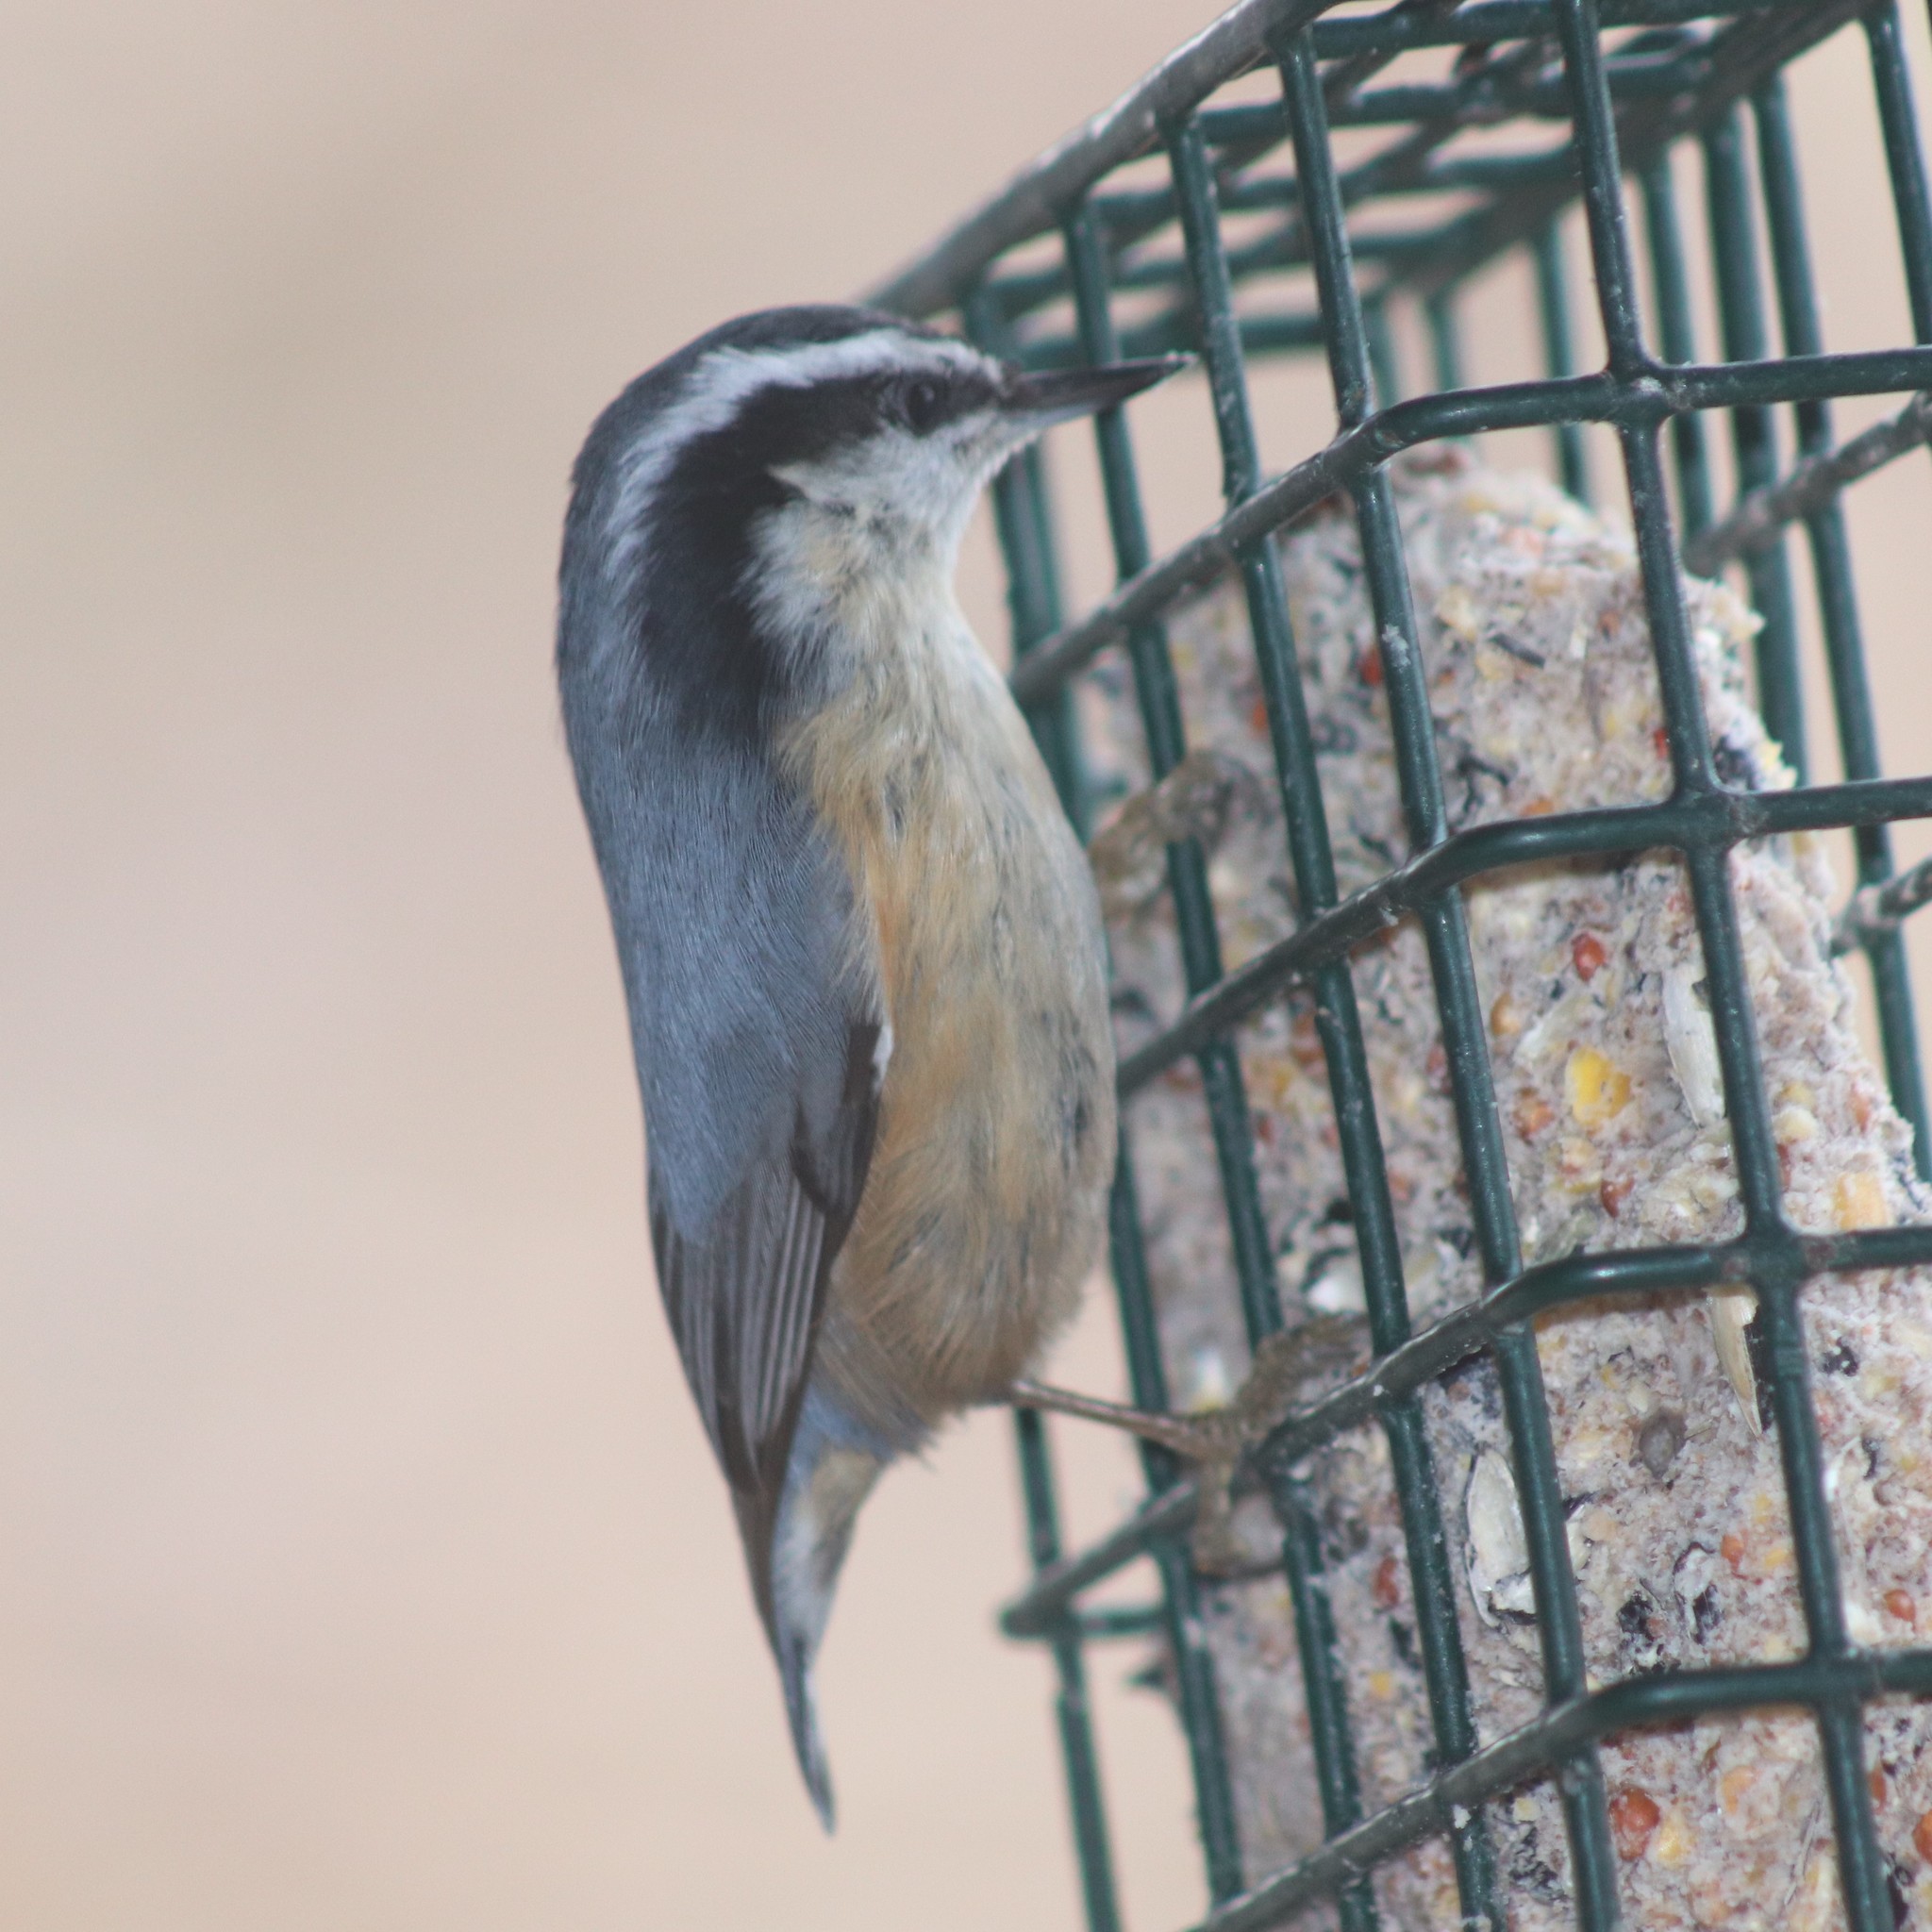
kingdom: Animalia
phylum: Chordata
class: Aves
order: Passeriformes
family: Sittidae
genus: Sitta
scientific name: Sitta canadensis
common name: Red-breasted nuthatch
